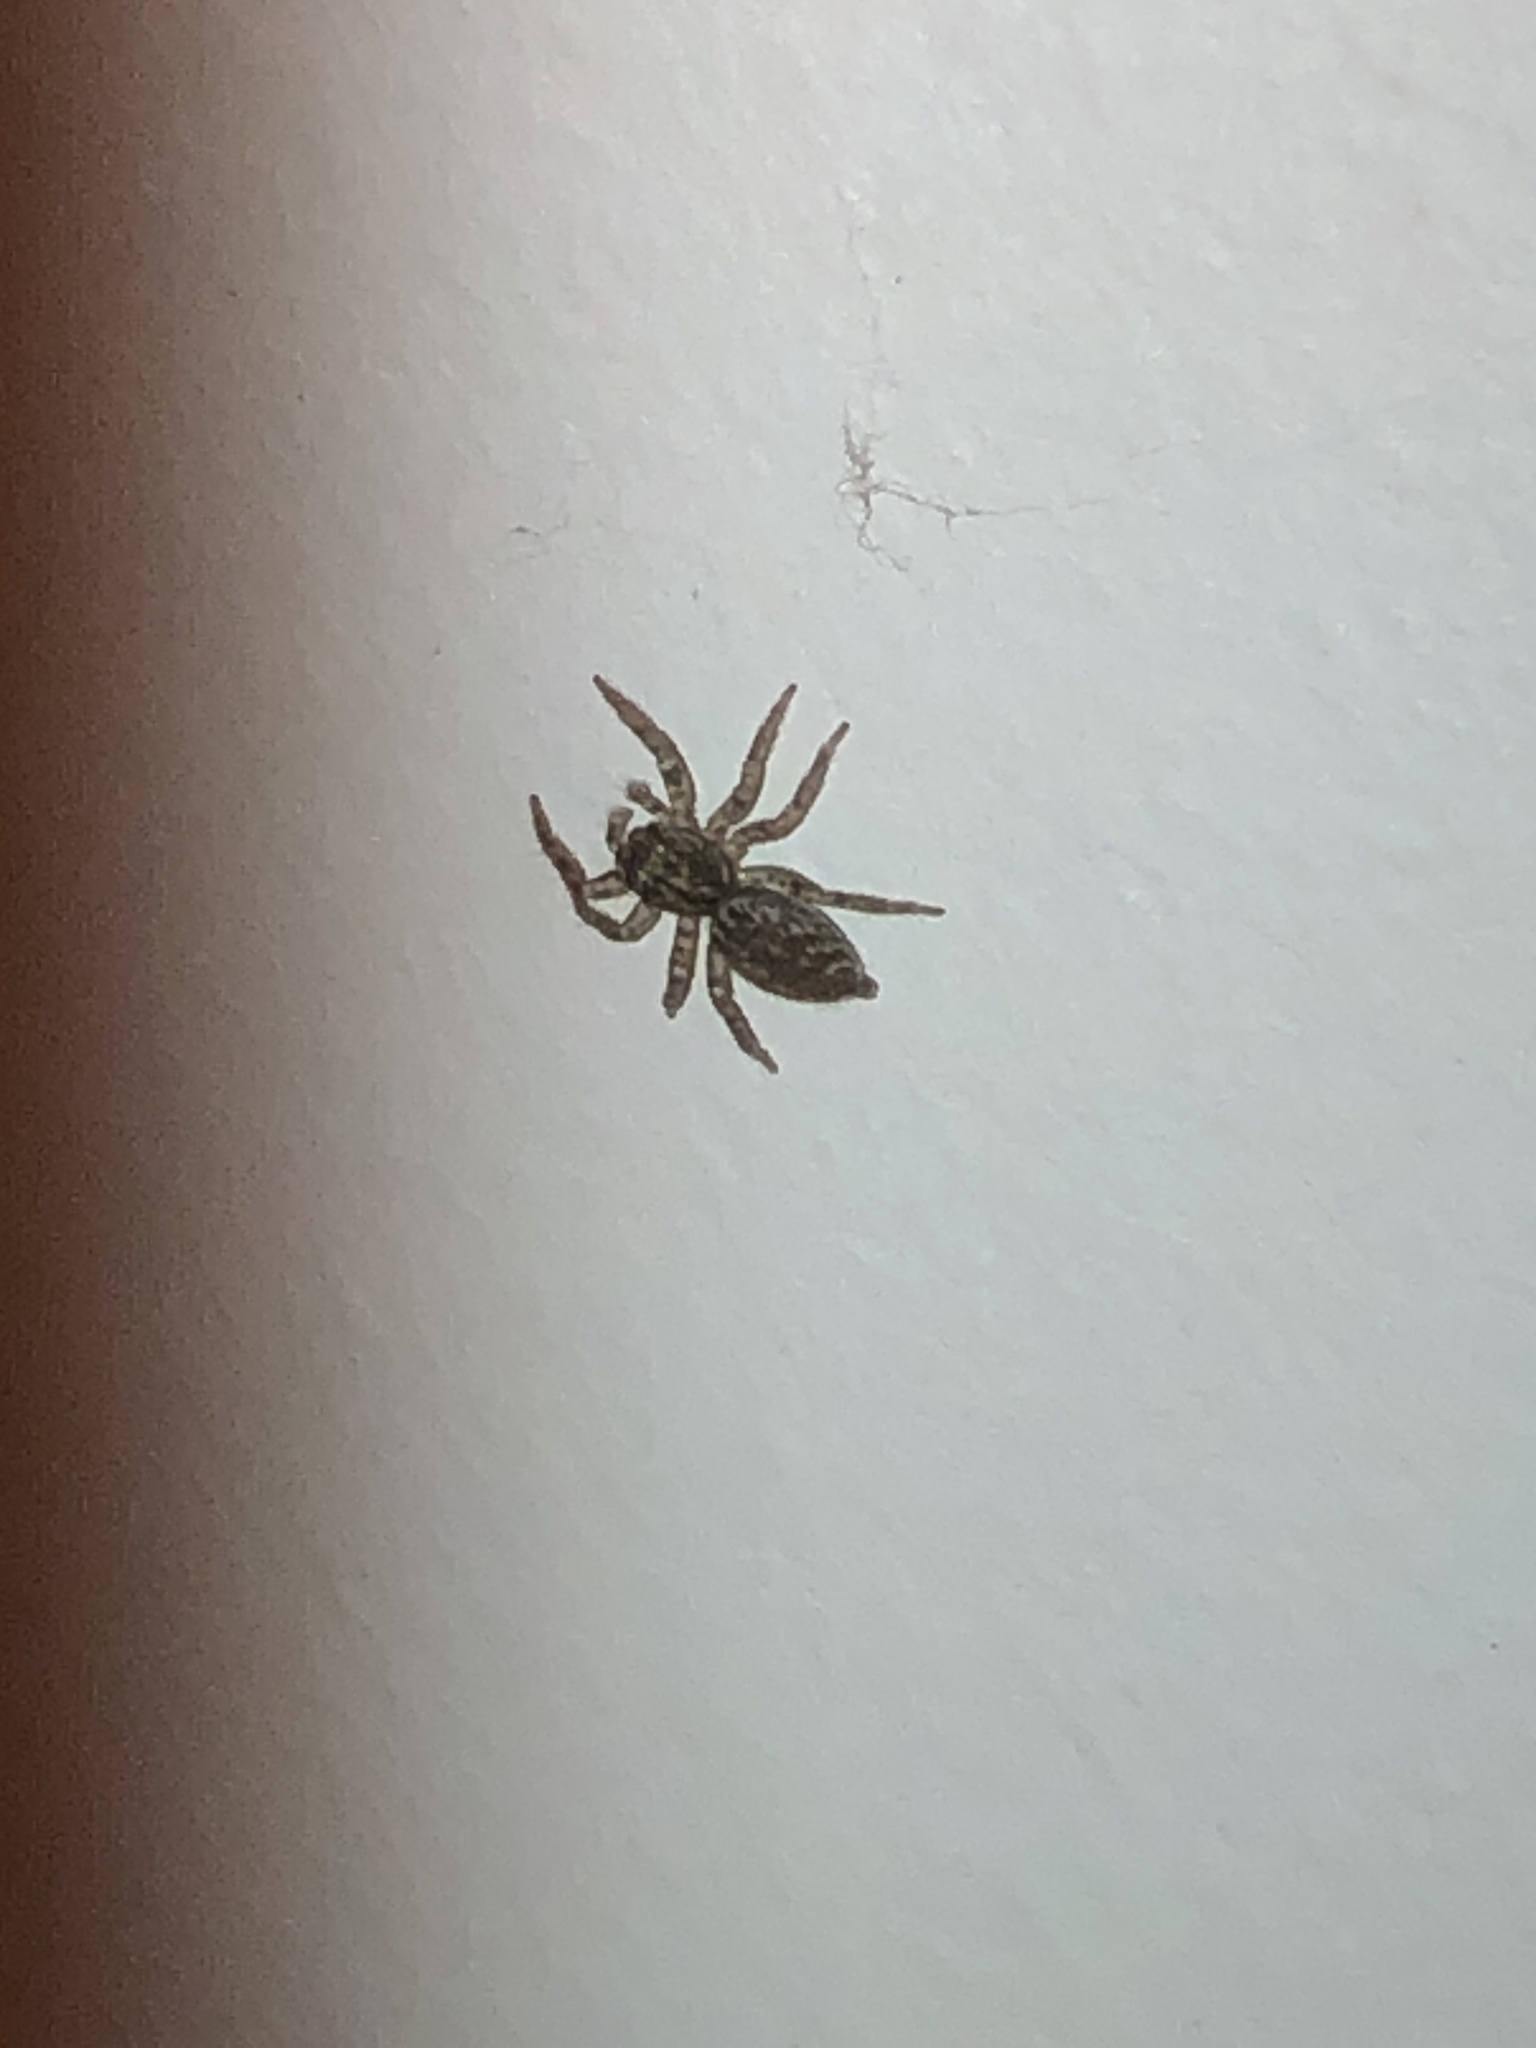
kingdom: Animalia
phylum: Arthropoda
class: Arachnida
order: Araneae
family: Salticidae
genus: Platycryptus
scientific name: Platycryptus undatus
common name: Tan jumping spider
